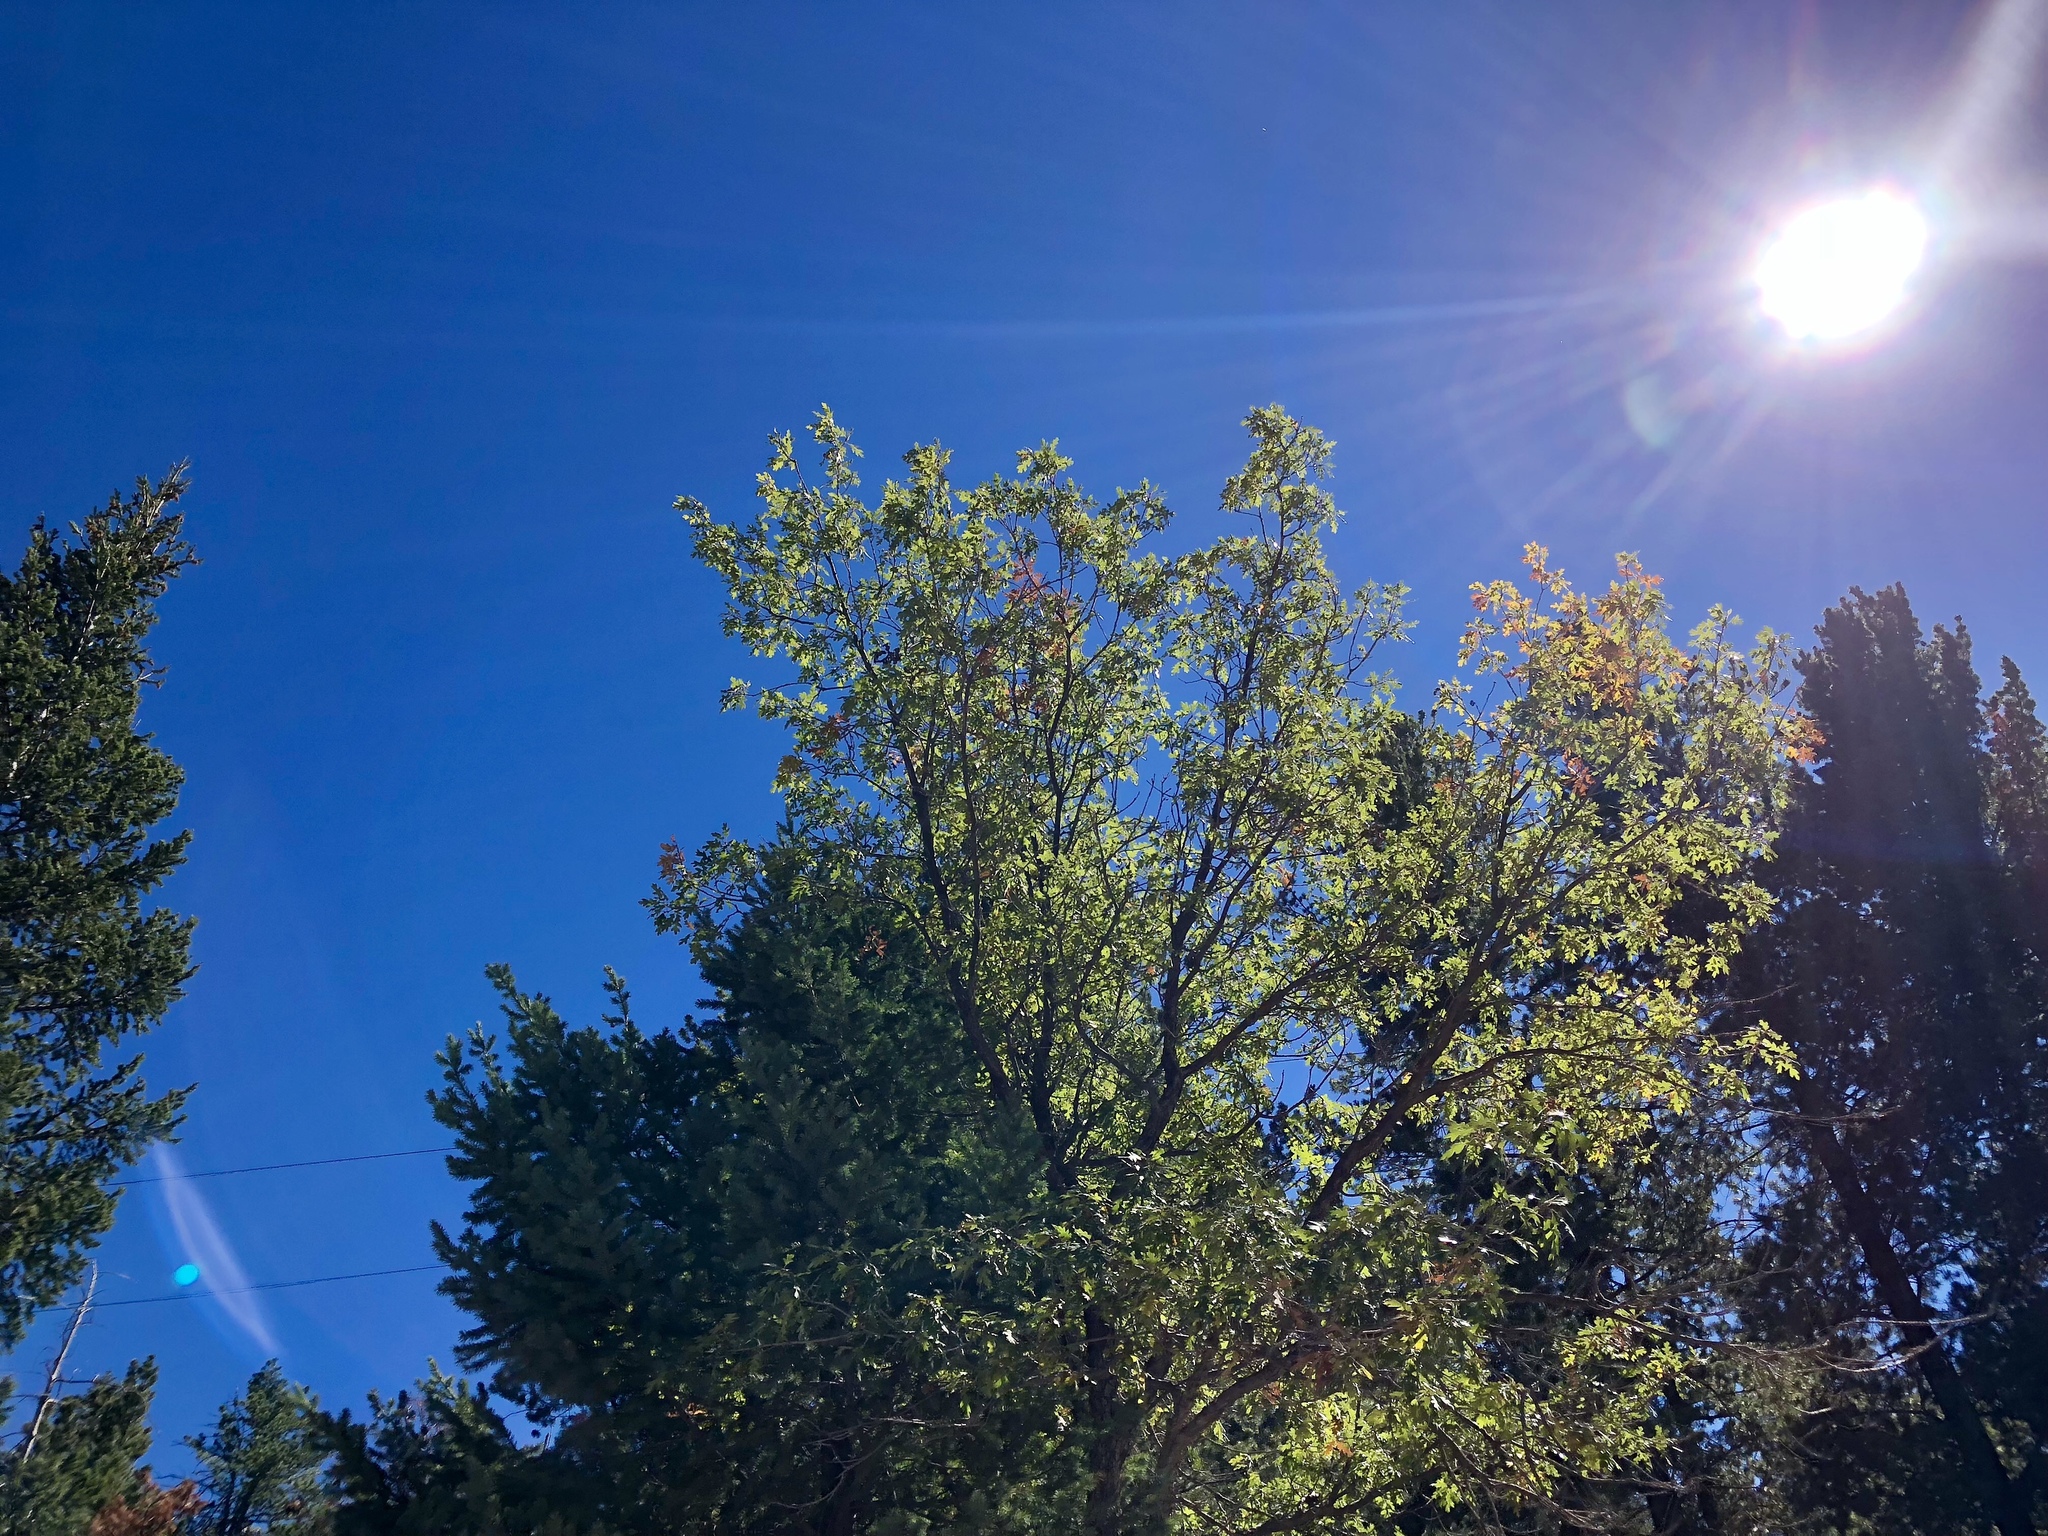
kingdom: Plantae
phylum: Tracheophyta
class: Magnoliopsida
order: Fagales
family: Fagaceae
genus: Quercus
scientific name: Quercus gambelii
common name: Gambel oak
